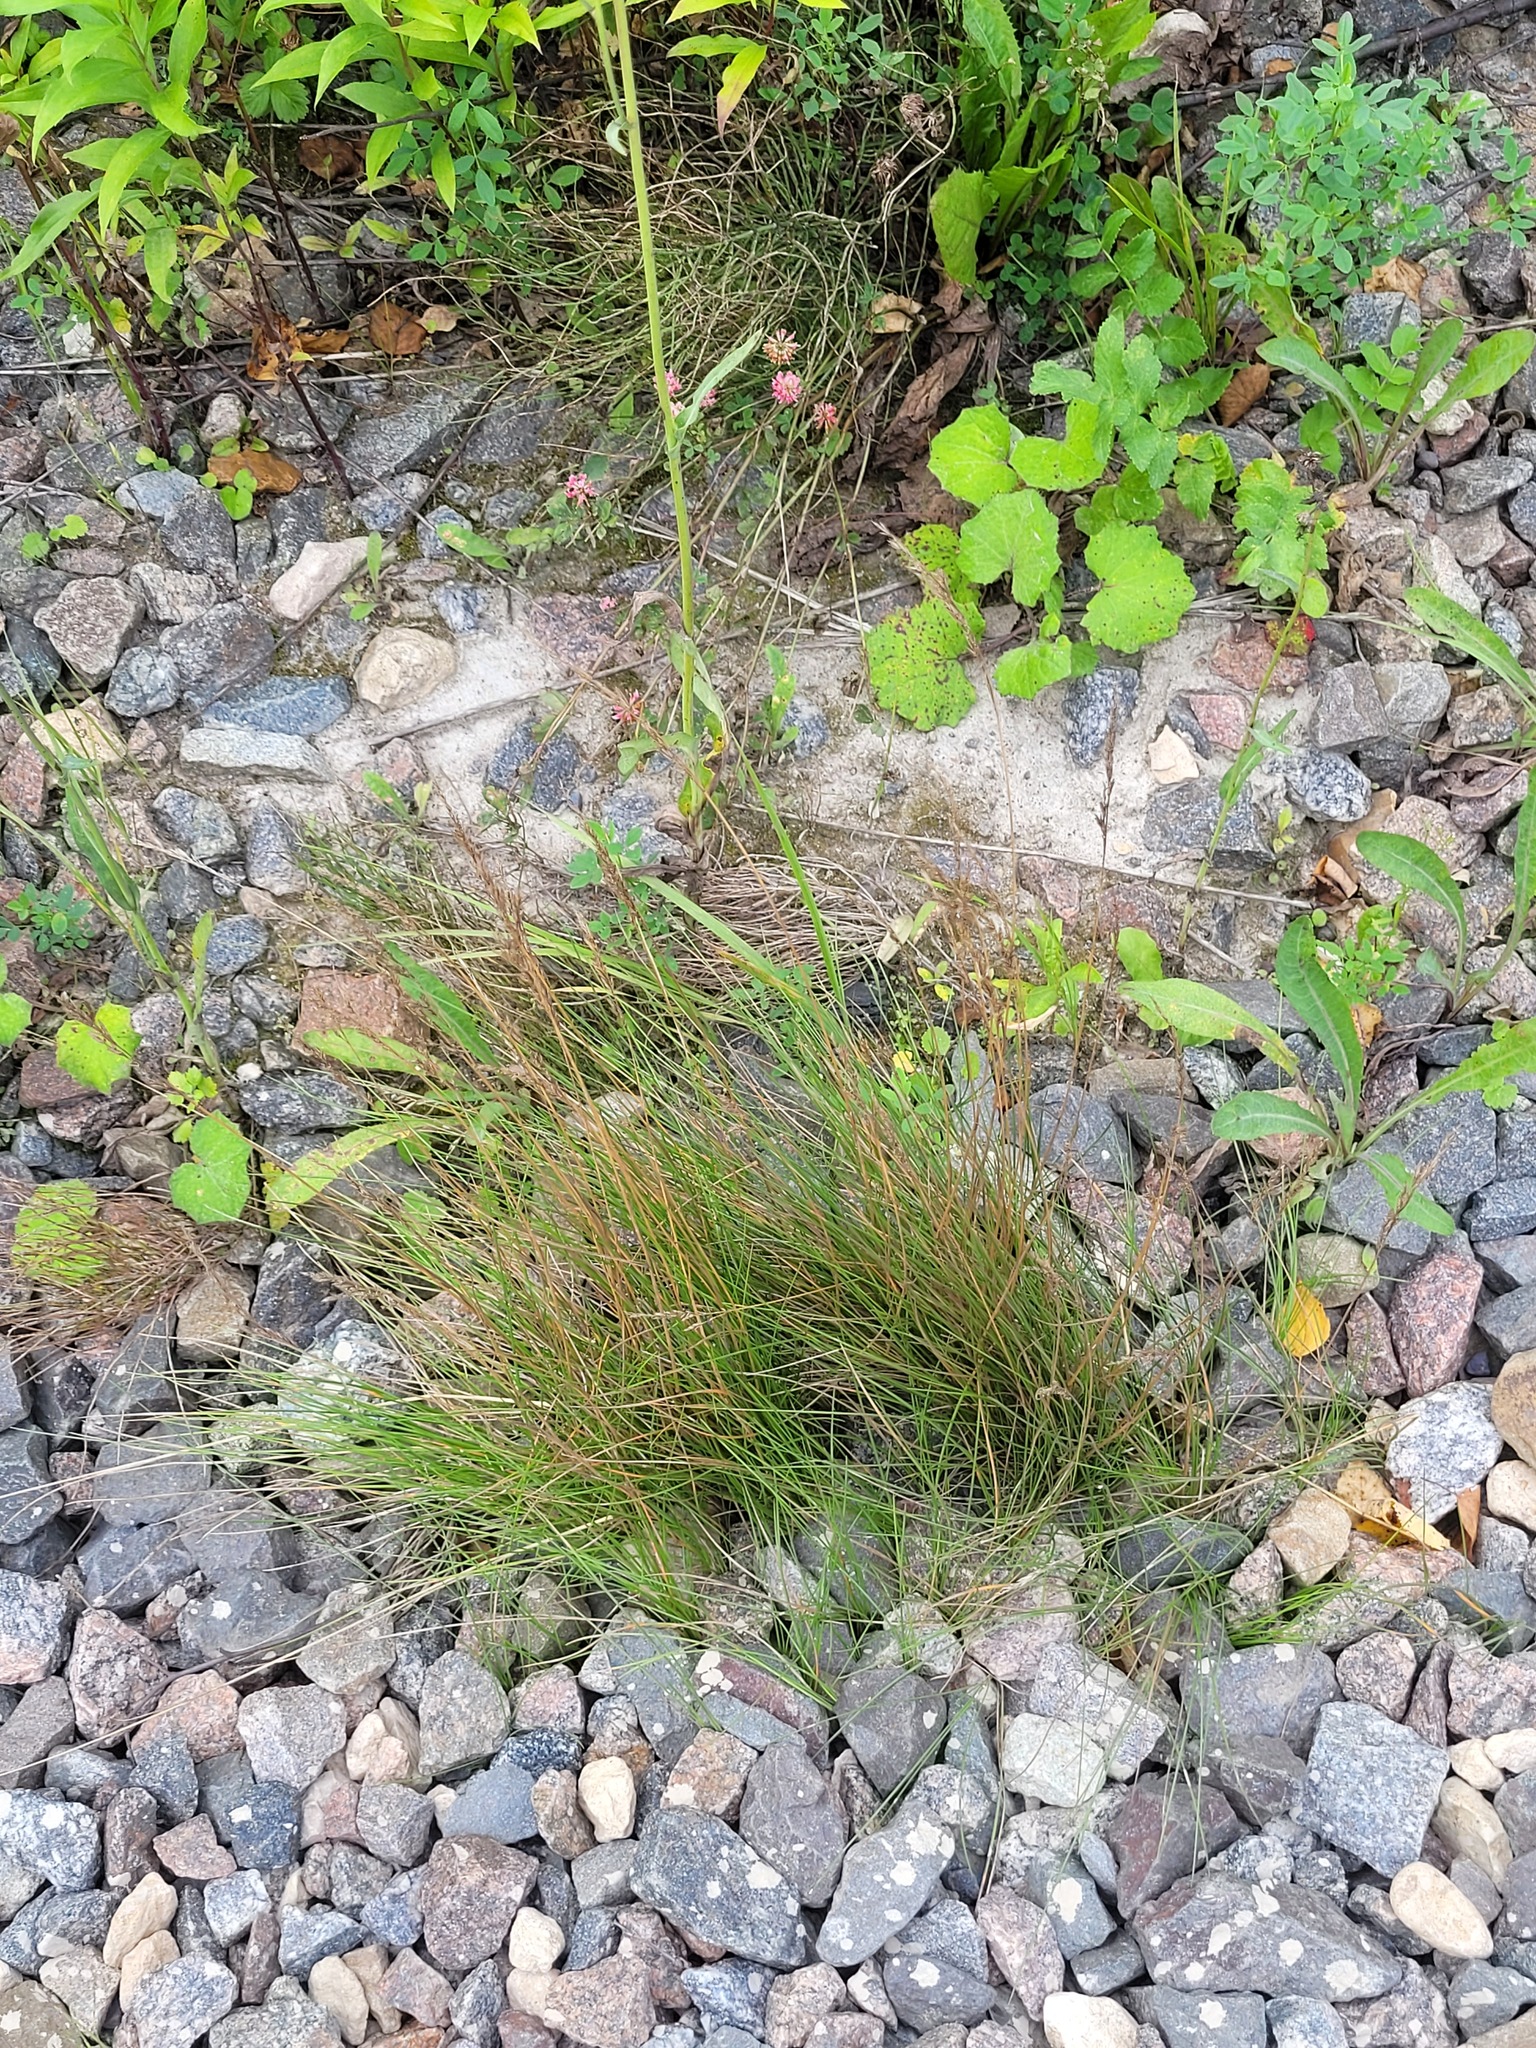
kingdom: Plantae
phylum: Tracheophyta
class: Liliopsida
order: Poales
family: Poaceae
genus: Festuca
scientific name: Festuca rubra
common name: Red fescue
